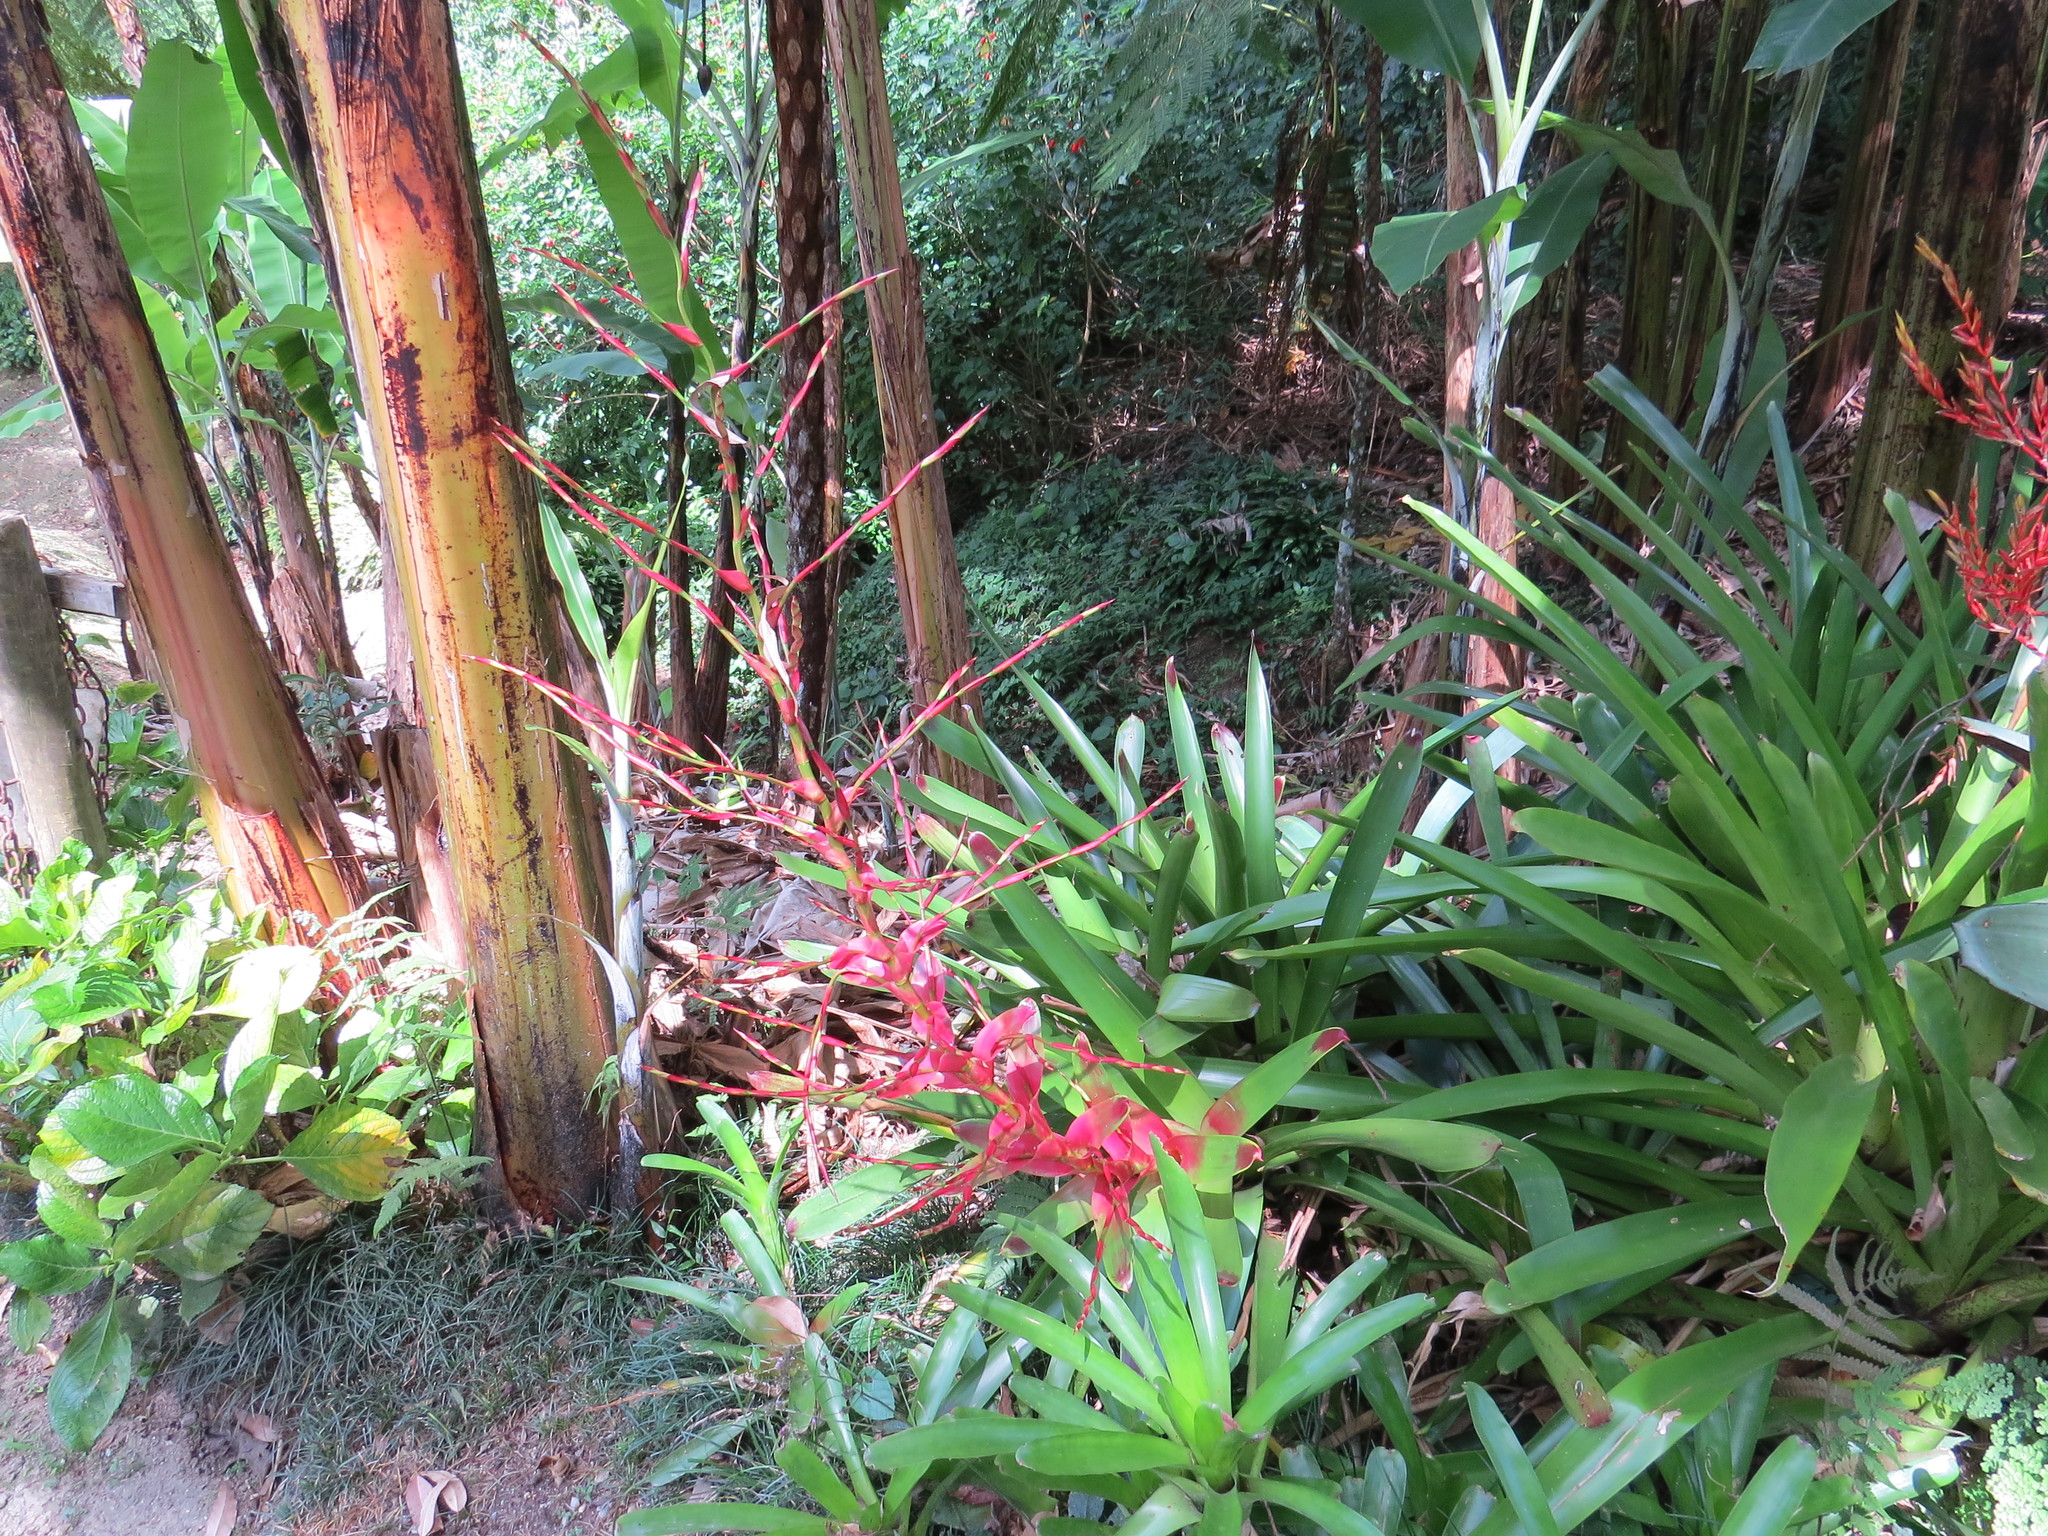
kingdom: Plantae
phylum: Tracheophyta
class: Liliopsida
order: Poales
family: Bromeliaceae
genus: Vriesea
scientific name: Vriesea philippocoburgi
